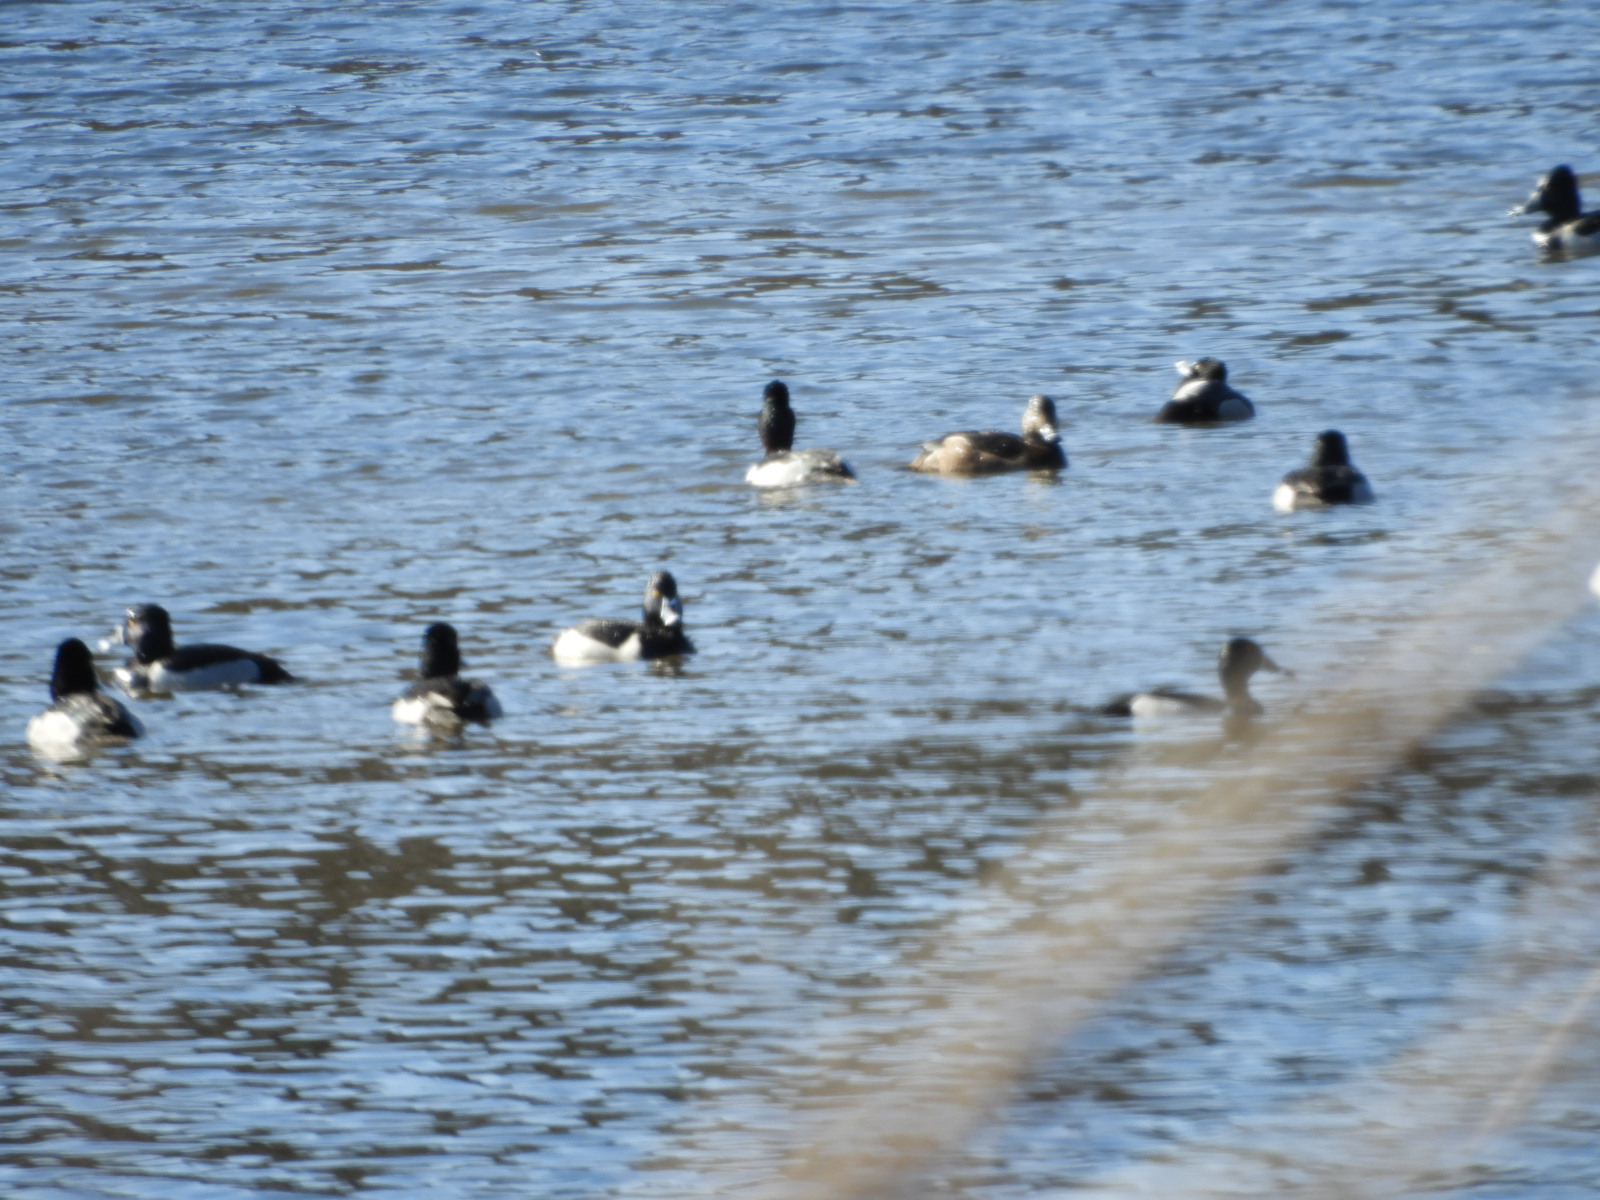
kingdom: Animalia
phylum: Chordata
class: Aves
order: Anseriformes
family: Anatidae
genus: Aythya
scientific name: Aythya collaris
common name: Ring-necked duck
